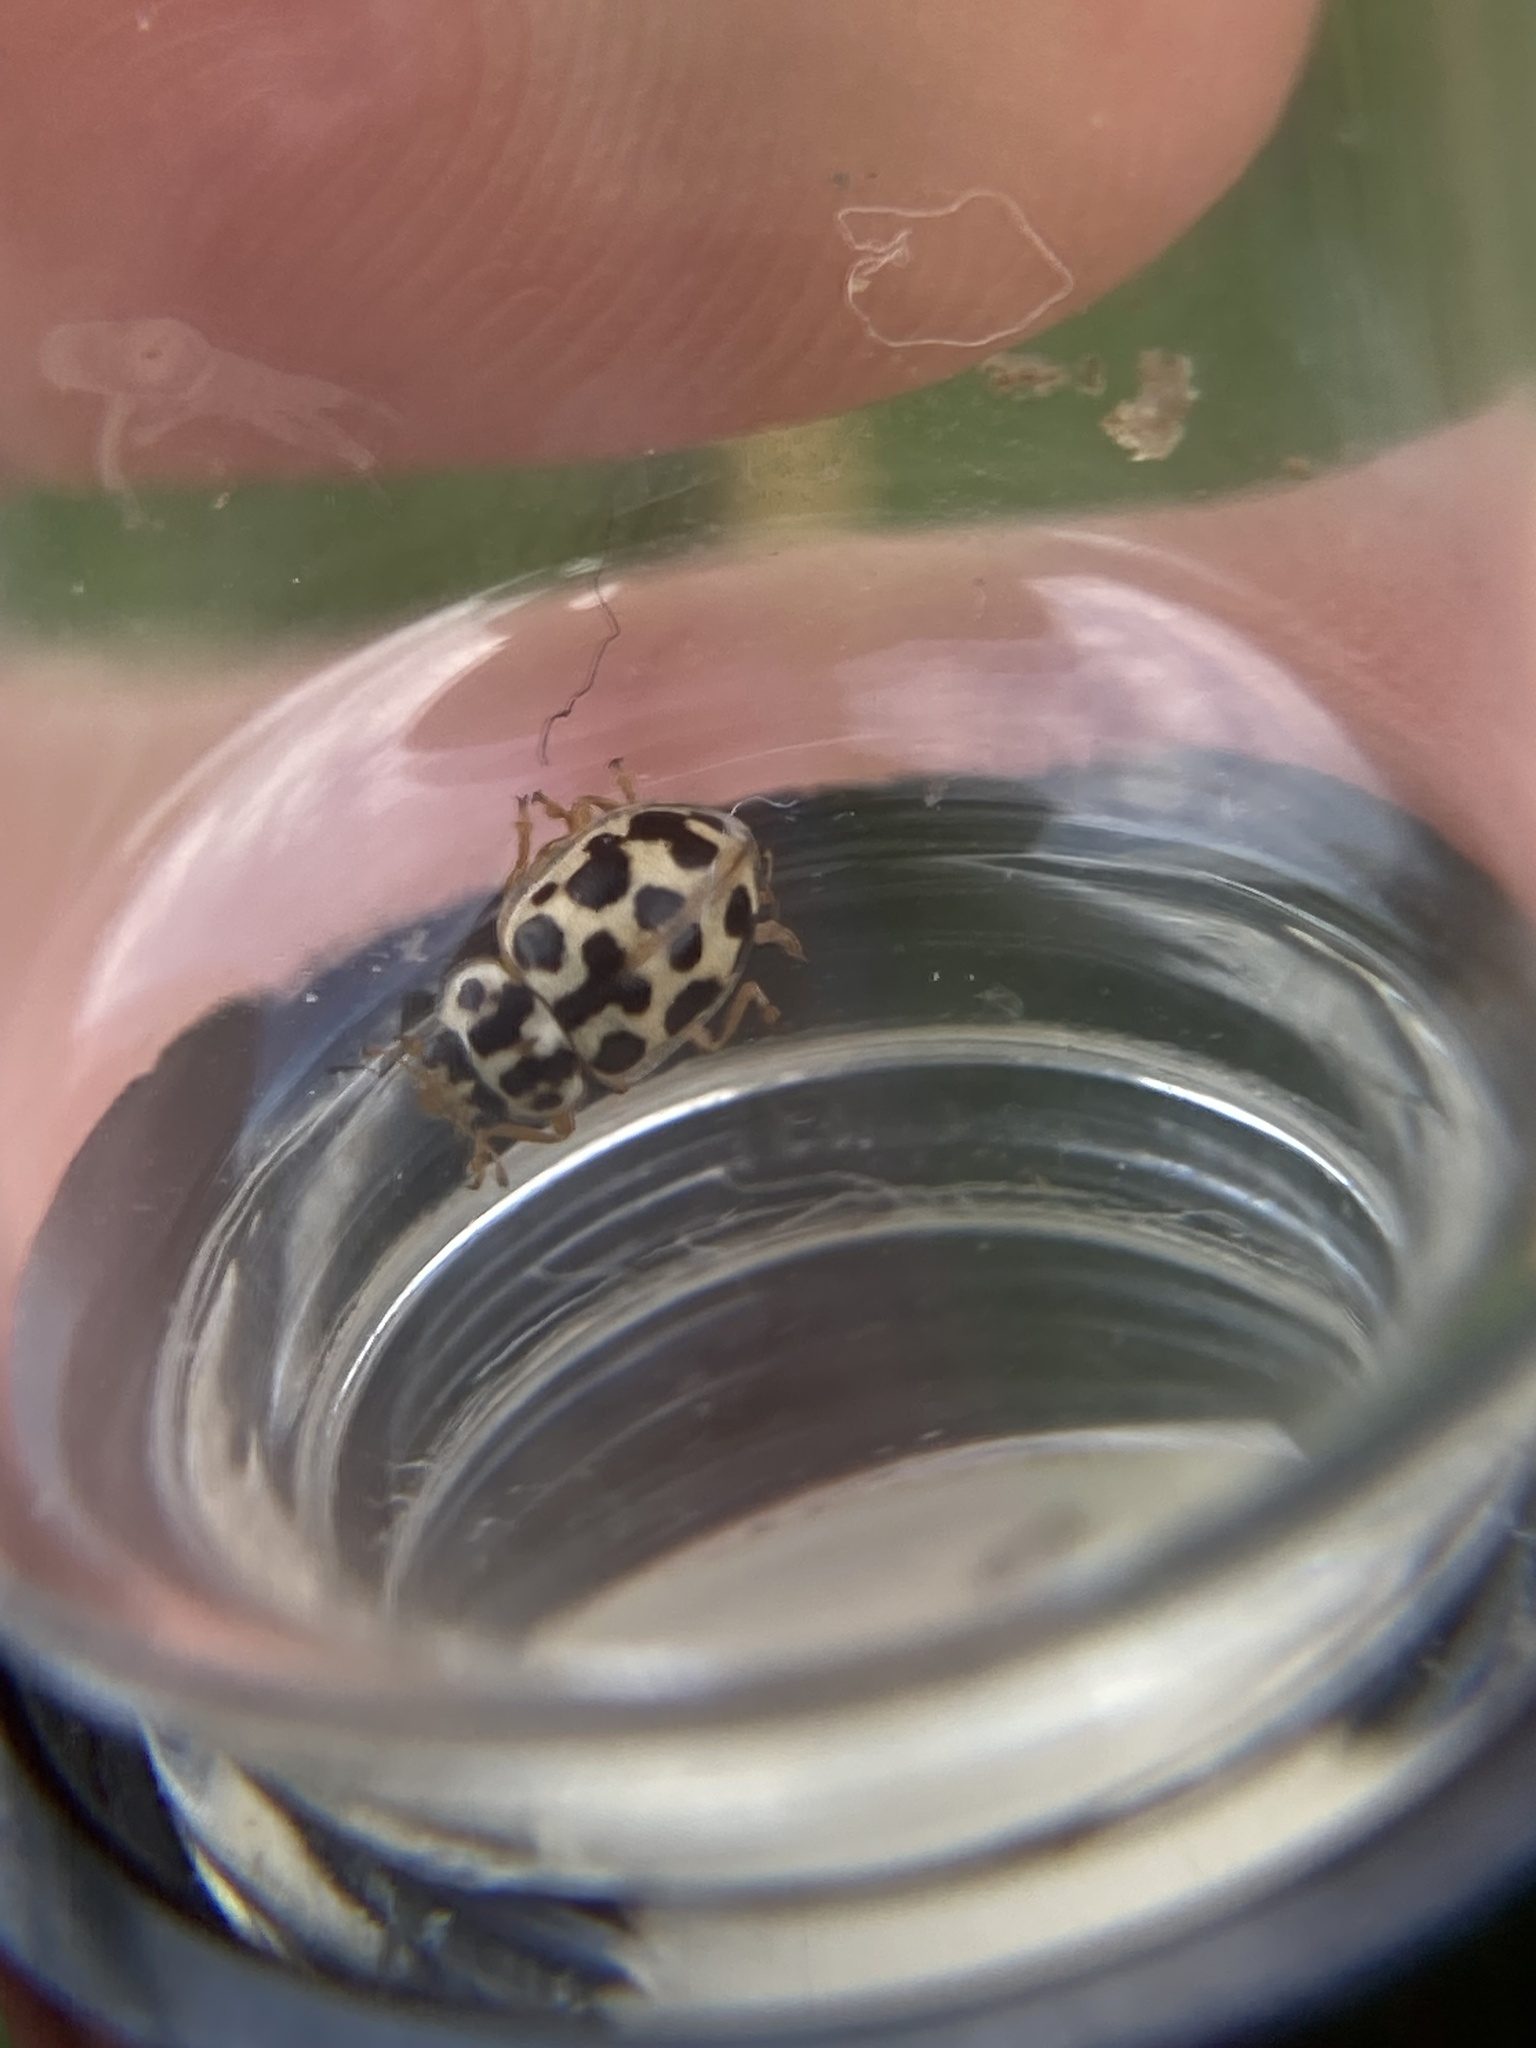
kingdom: Animalia
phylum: Arthropoda
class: Insecta
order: Coleoptera
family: Coccinellidae
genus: Anisosticta
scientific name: Anisosticta bitriangularis
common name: Marsh lady beetle
